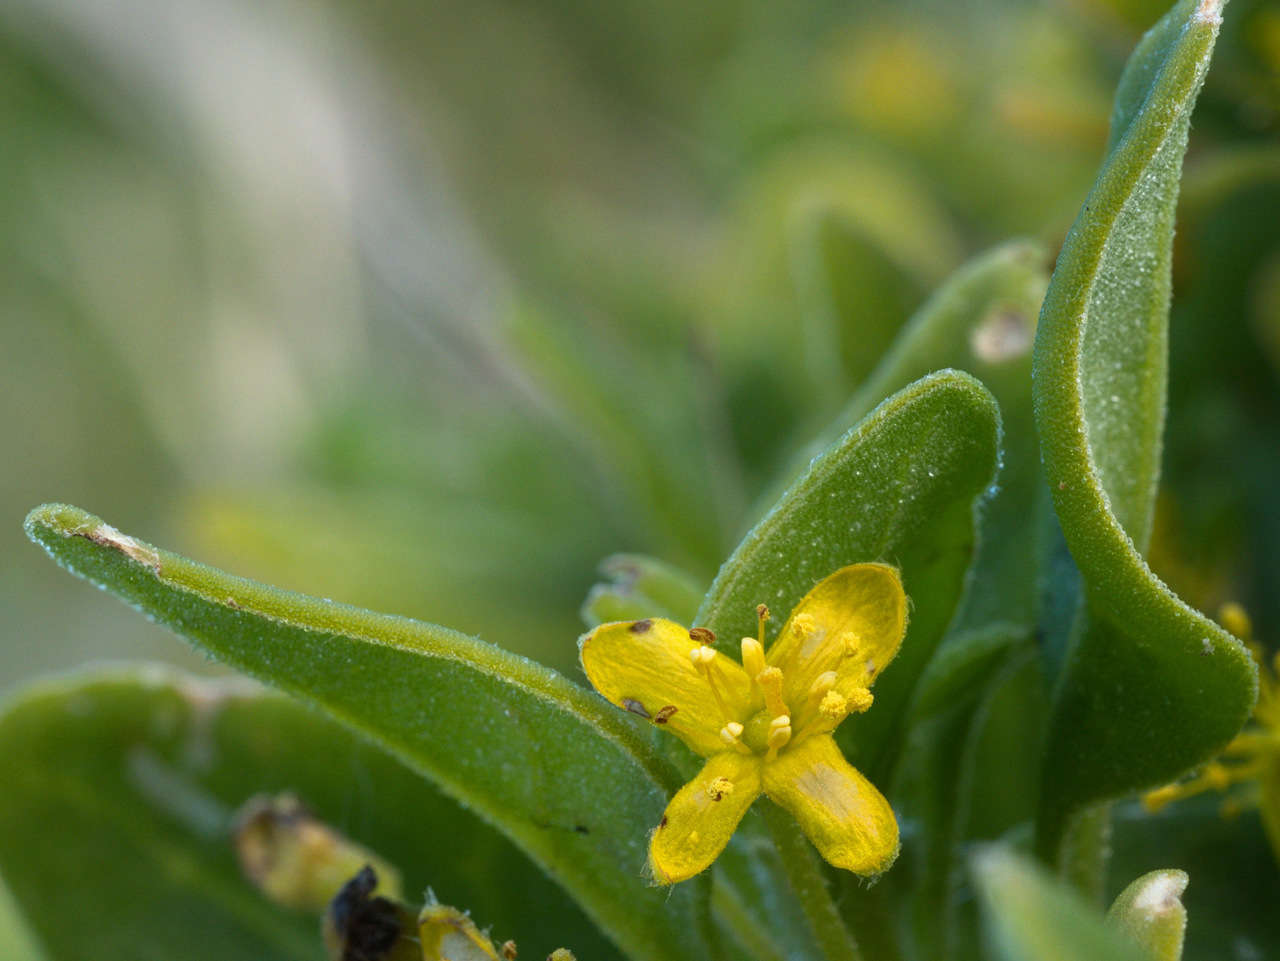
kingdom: Plantae
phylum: Tracheophyta
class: Magnoliopsida
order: Caryophyllales
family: Aizoaceae
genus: Tetragonia
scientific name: Tetragonia implexicoma
